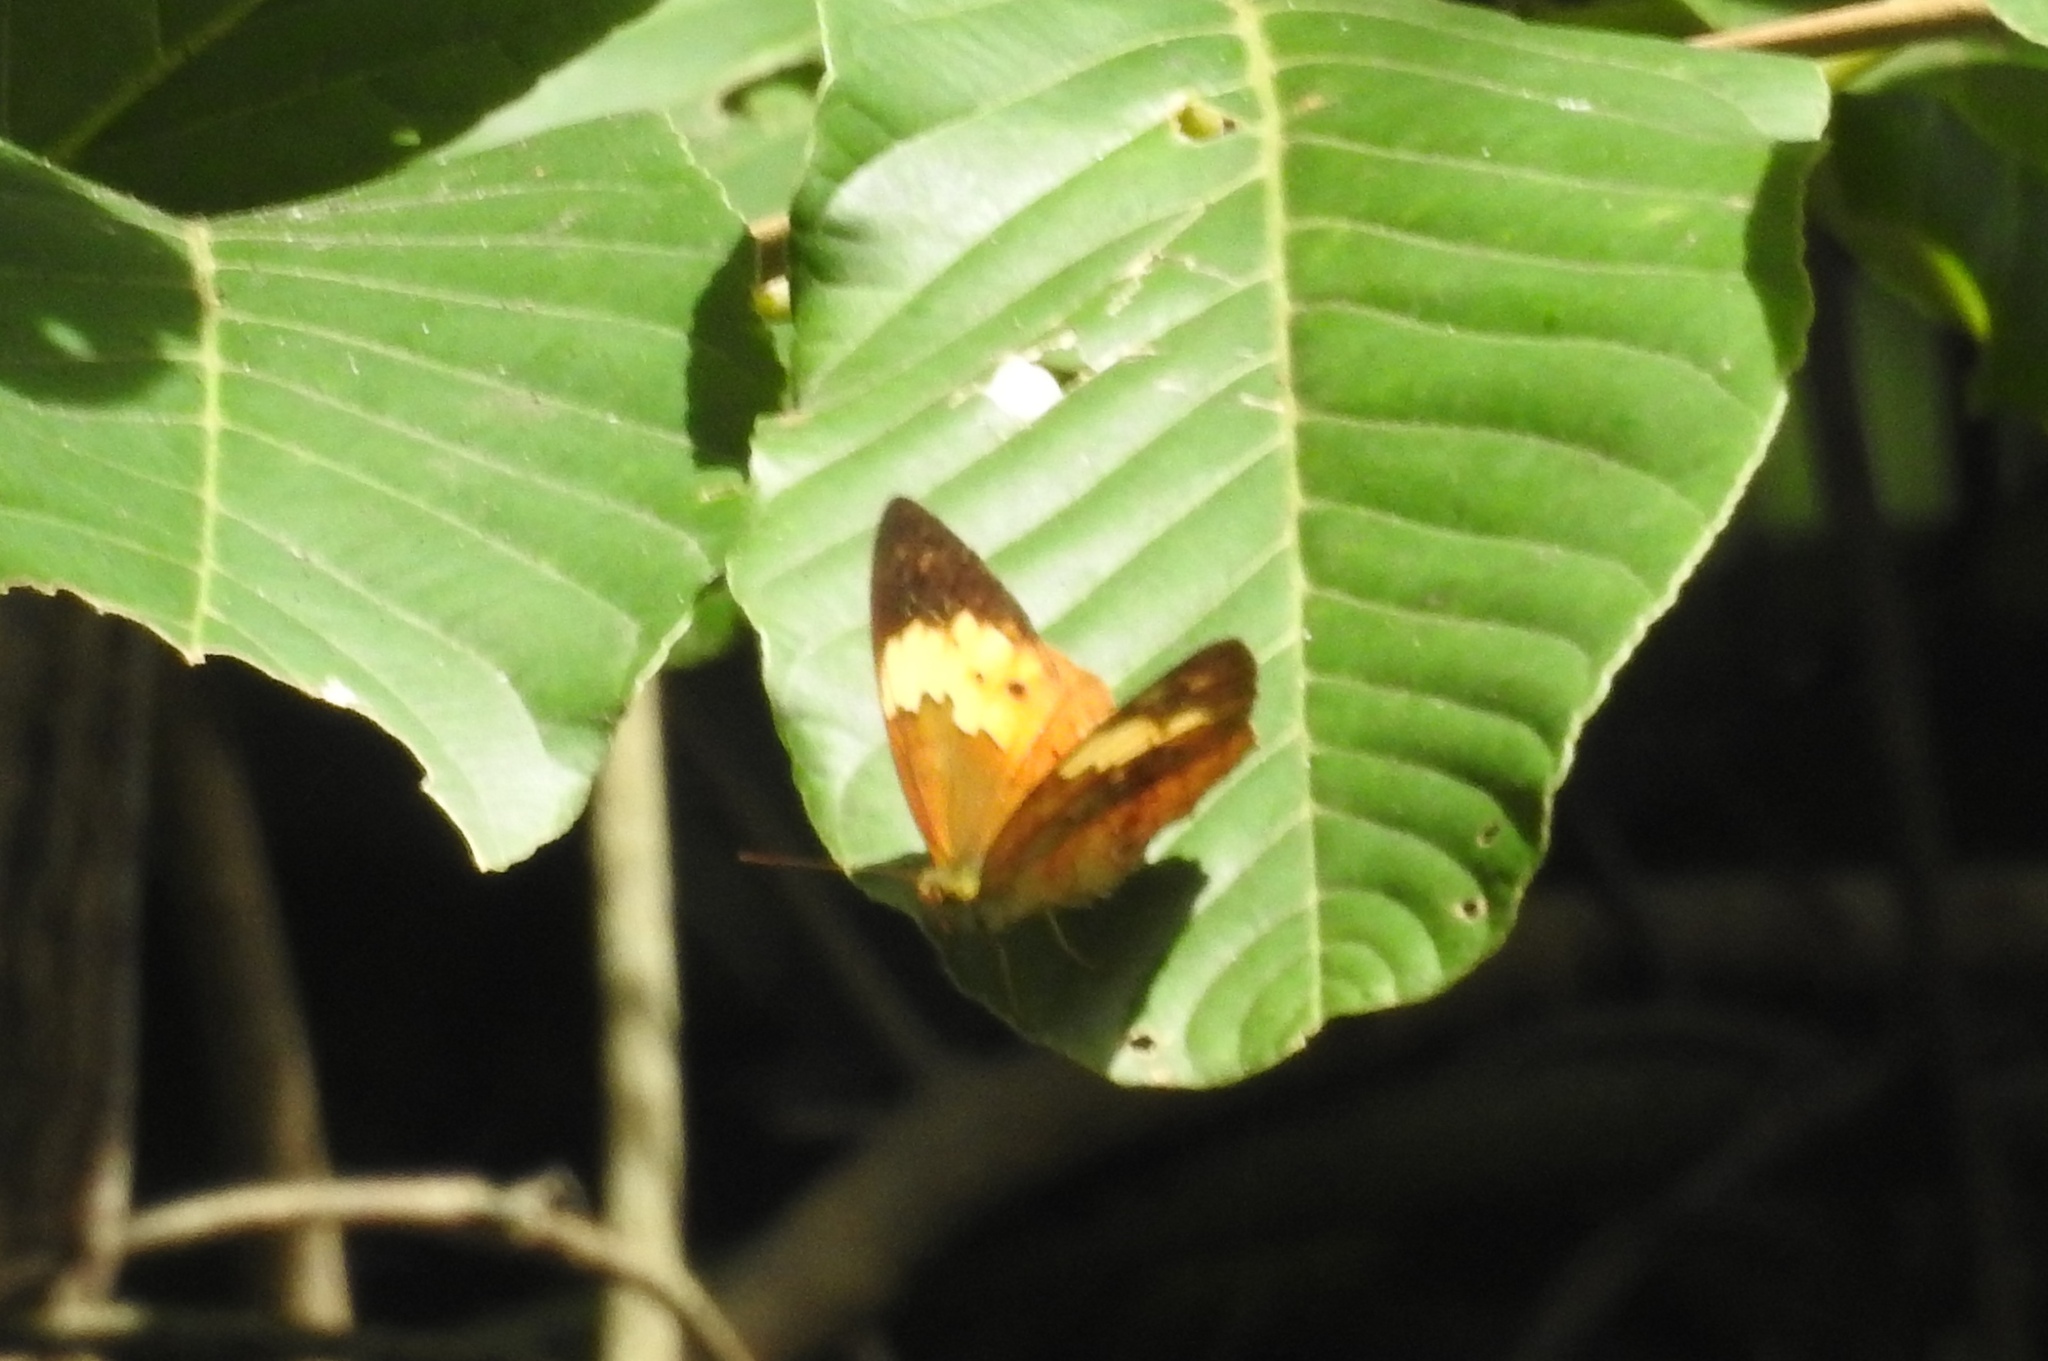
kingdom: Animalia
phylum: Arthropoda
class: Insecta
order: Lepidoptera
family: Nymphalidae
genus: Cupha
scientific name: Cupha erymanthis
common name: Rustic
